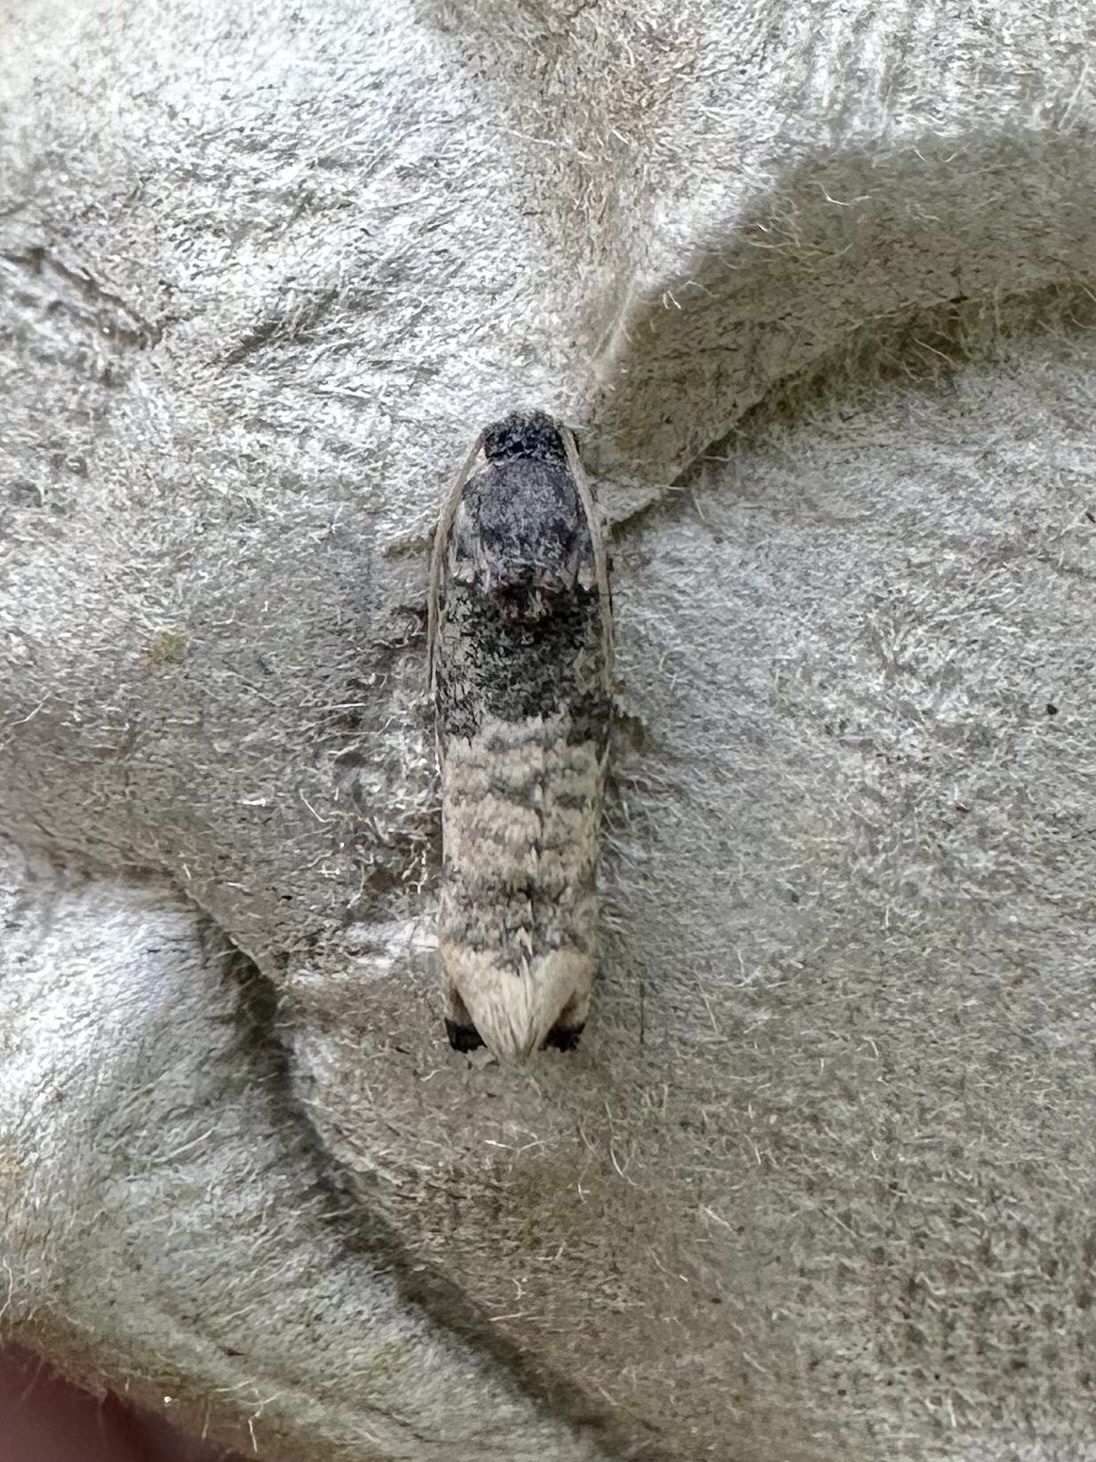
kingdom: Animalia
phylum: Arthropoda
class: Insecta
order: Lepidoptera
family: Tortricidae
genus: Epiblema
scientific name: Epiblema obfuscana
